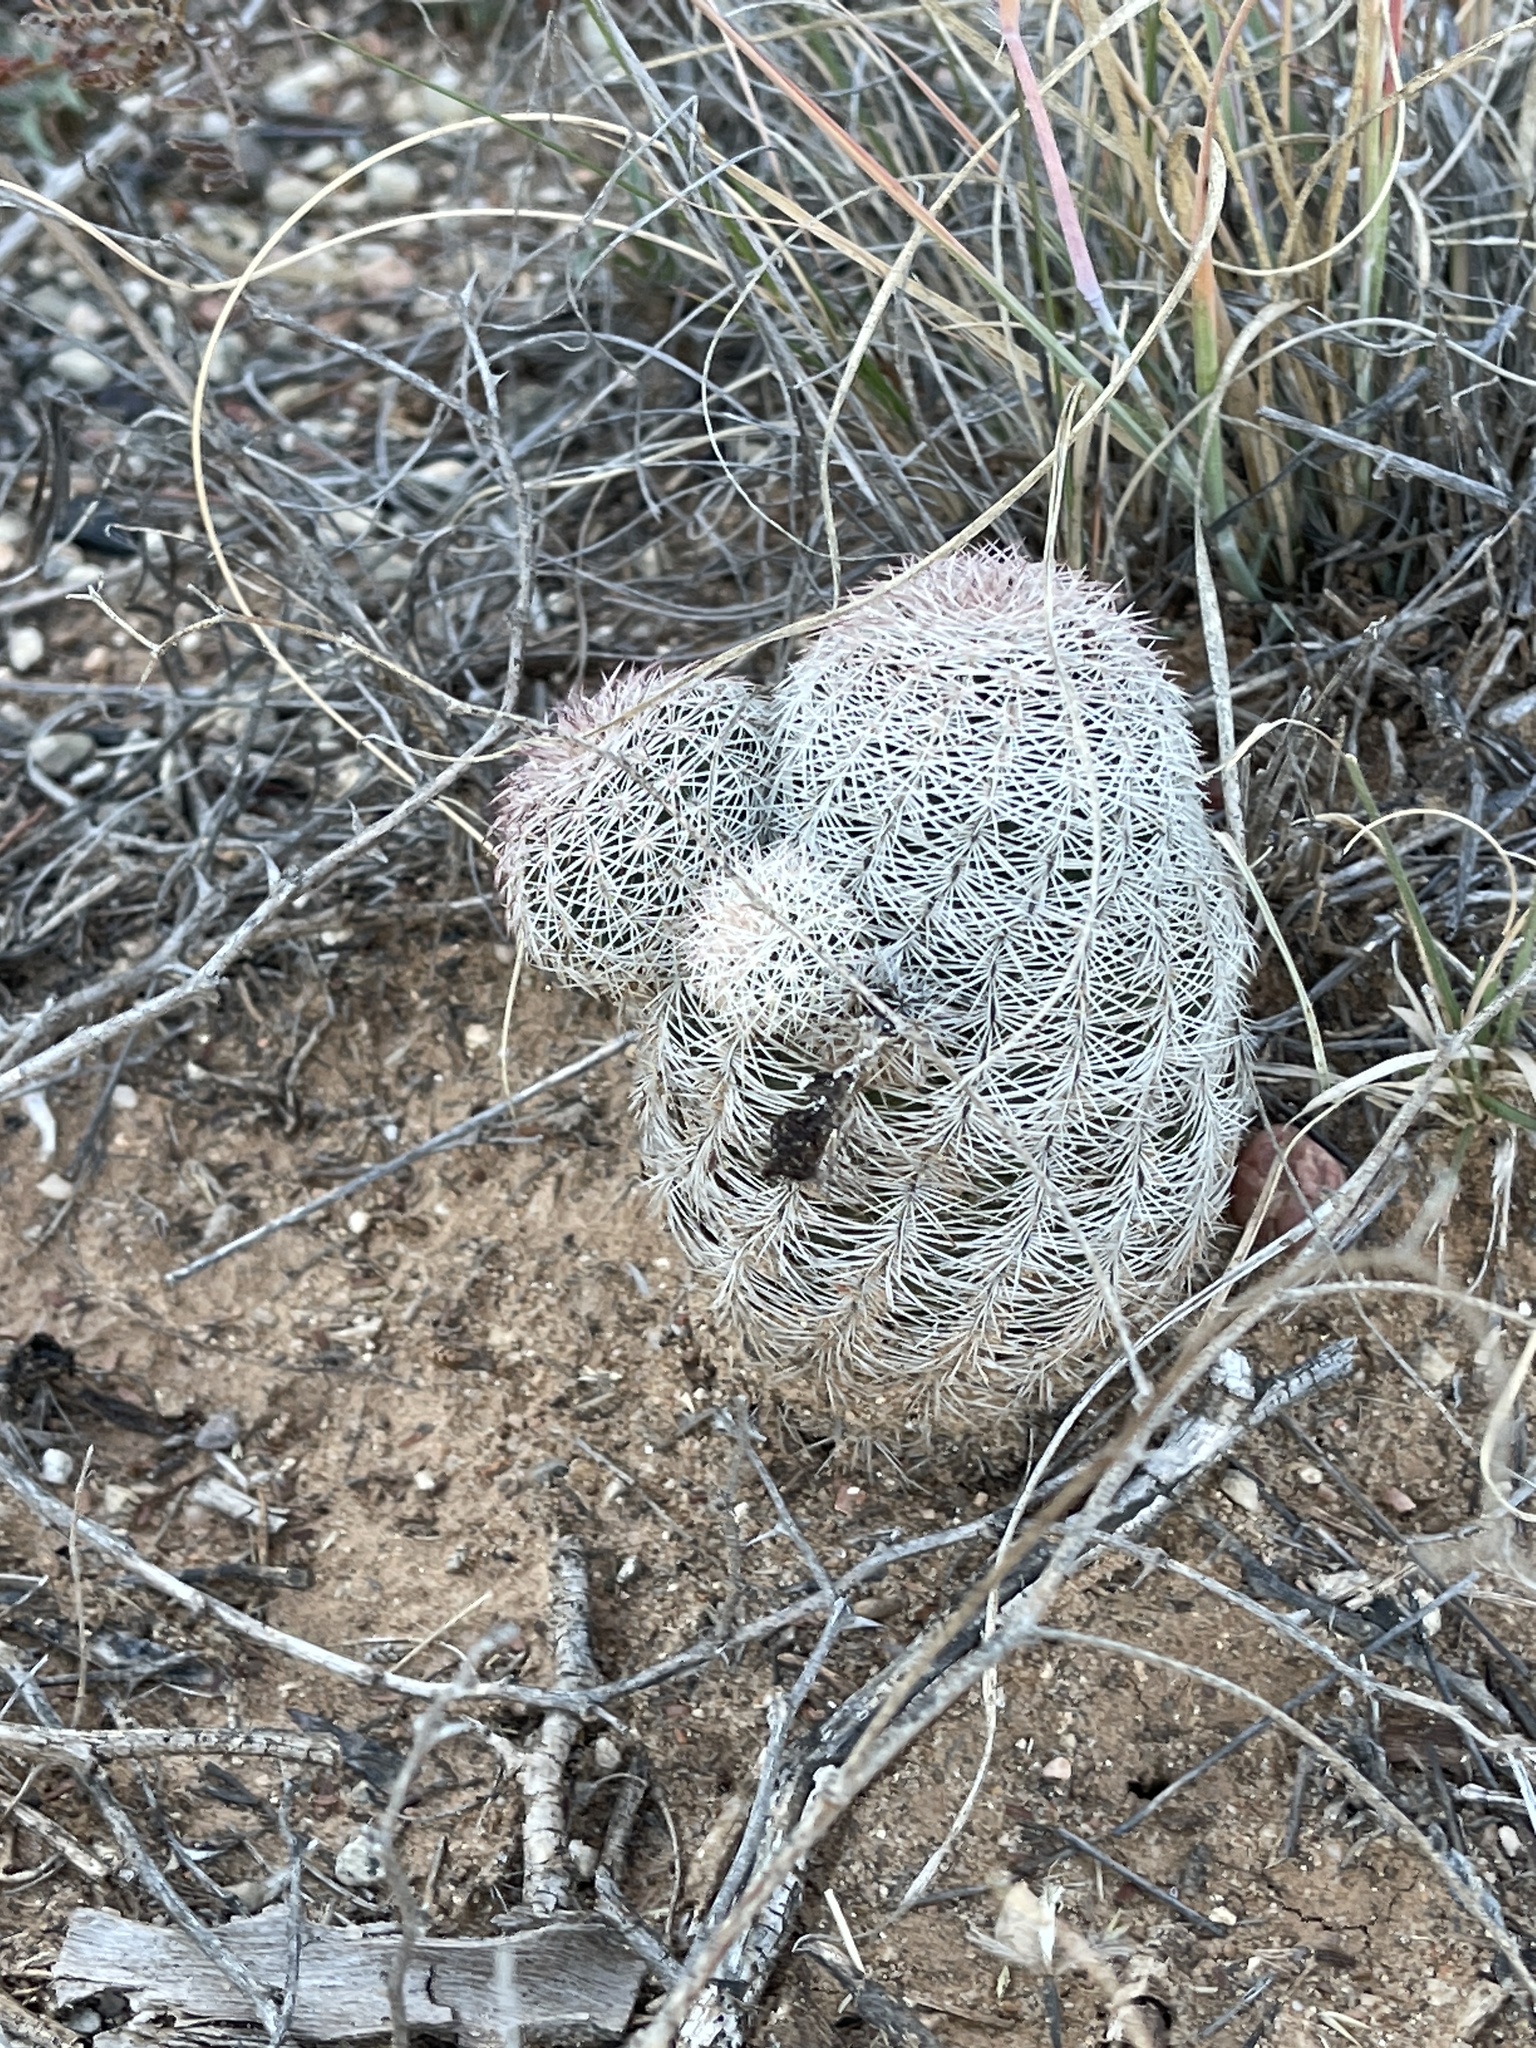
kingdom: Plantae
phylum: Tracheophyta
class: Magnoliopsida
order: Caryophyllales
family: Cactaceae
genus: Echinocereus
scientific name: Echinocereus reichenbachii
